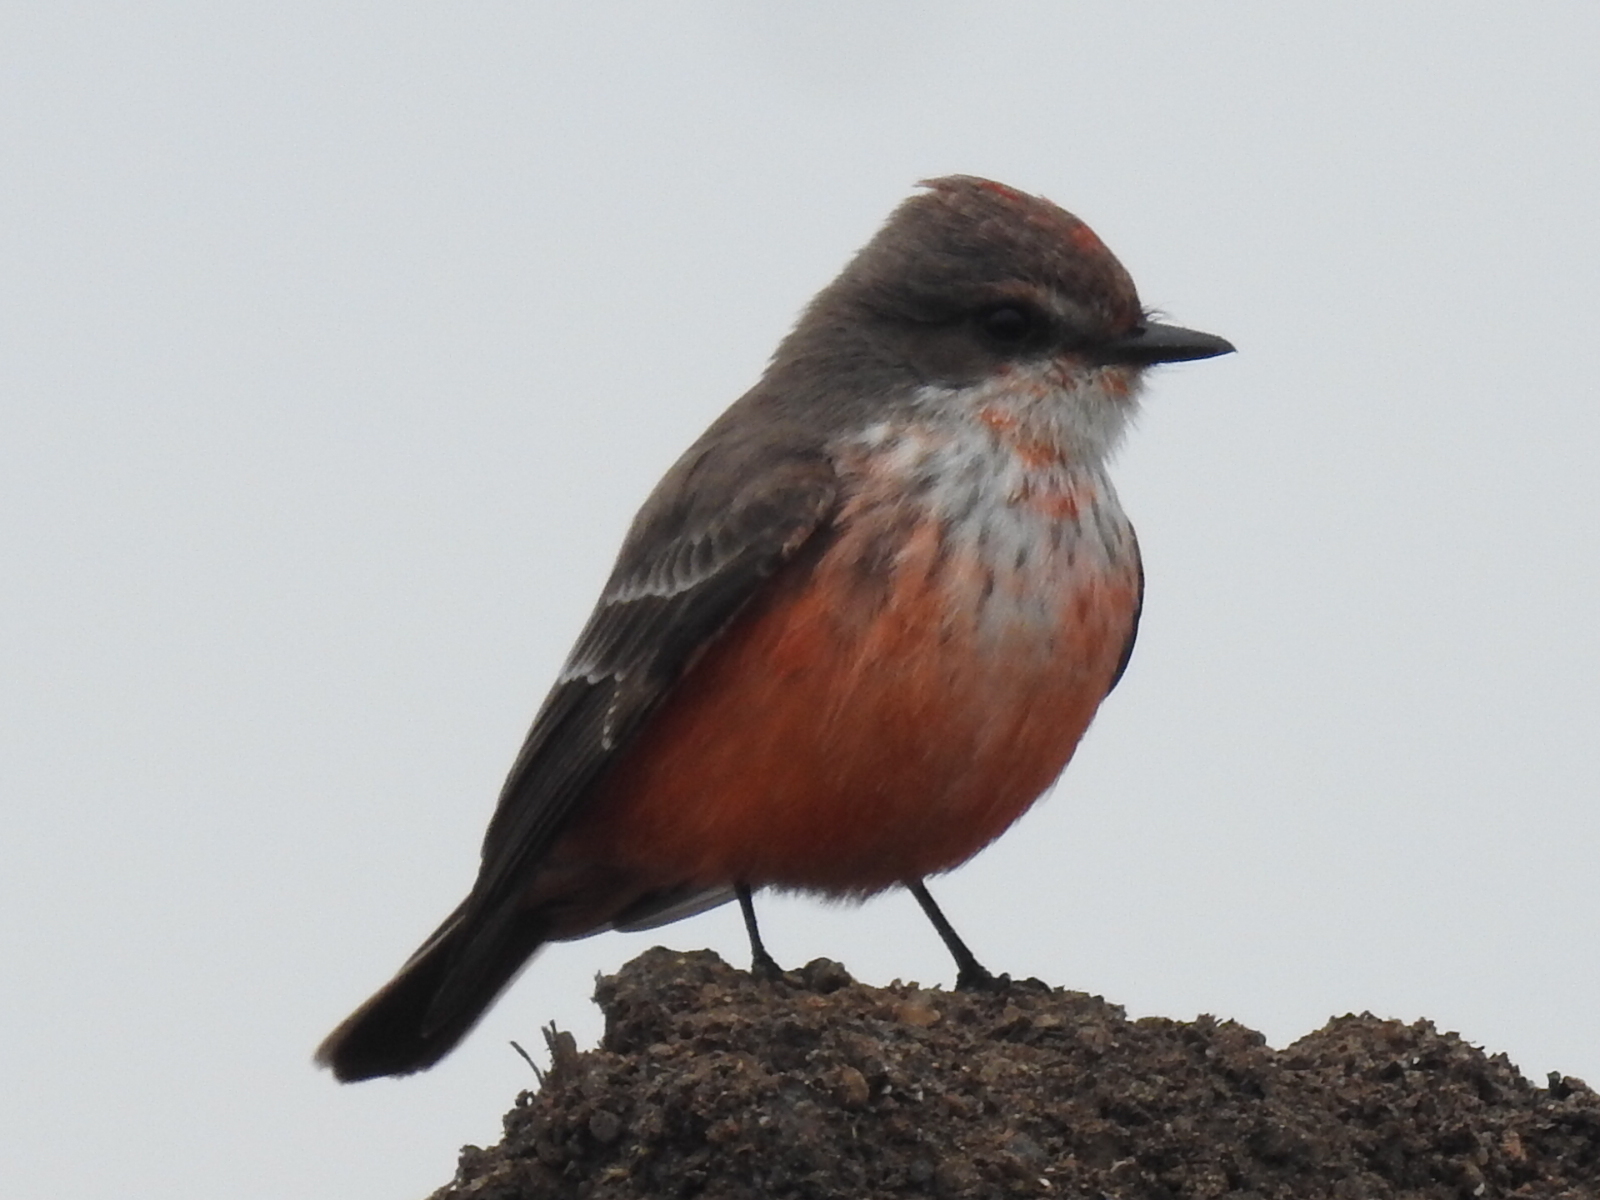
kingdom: Animalia
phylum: Chordata
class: Aves
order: Passeriformes
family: Tyrannidae
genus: Pyrocephalus
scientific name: Pyrocephalus rubinus
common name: Vermilion flycatcher
